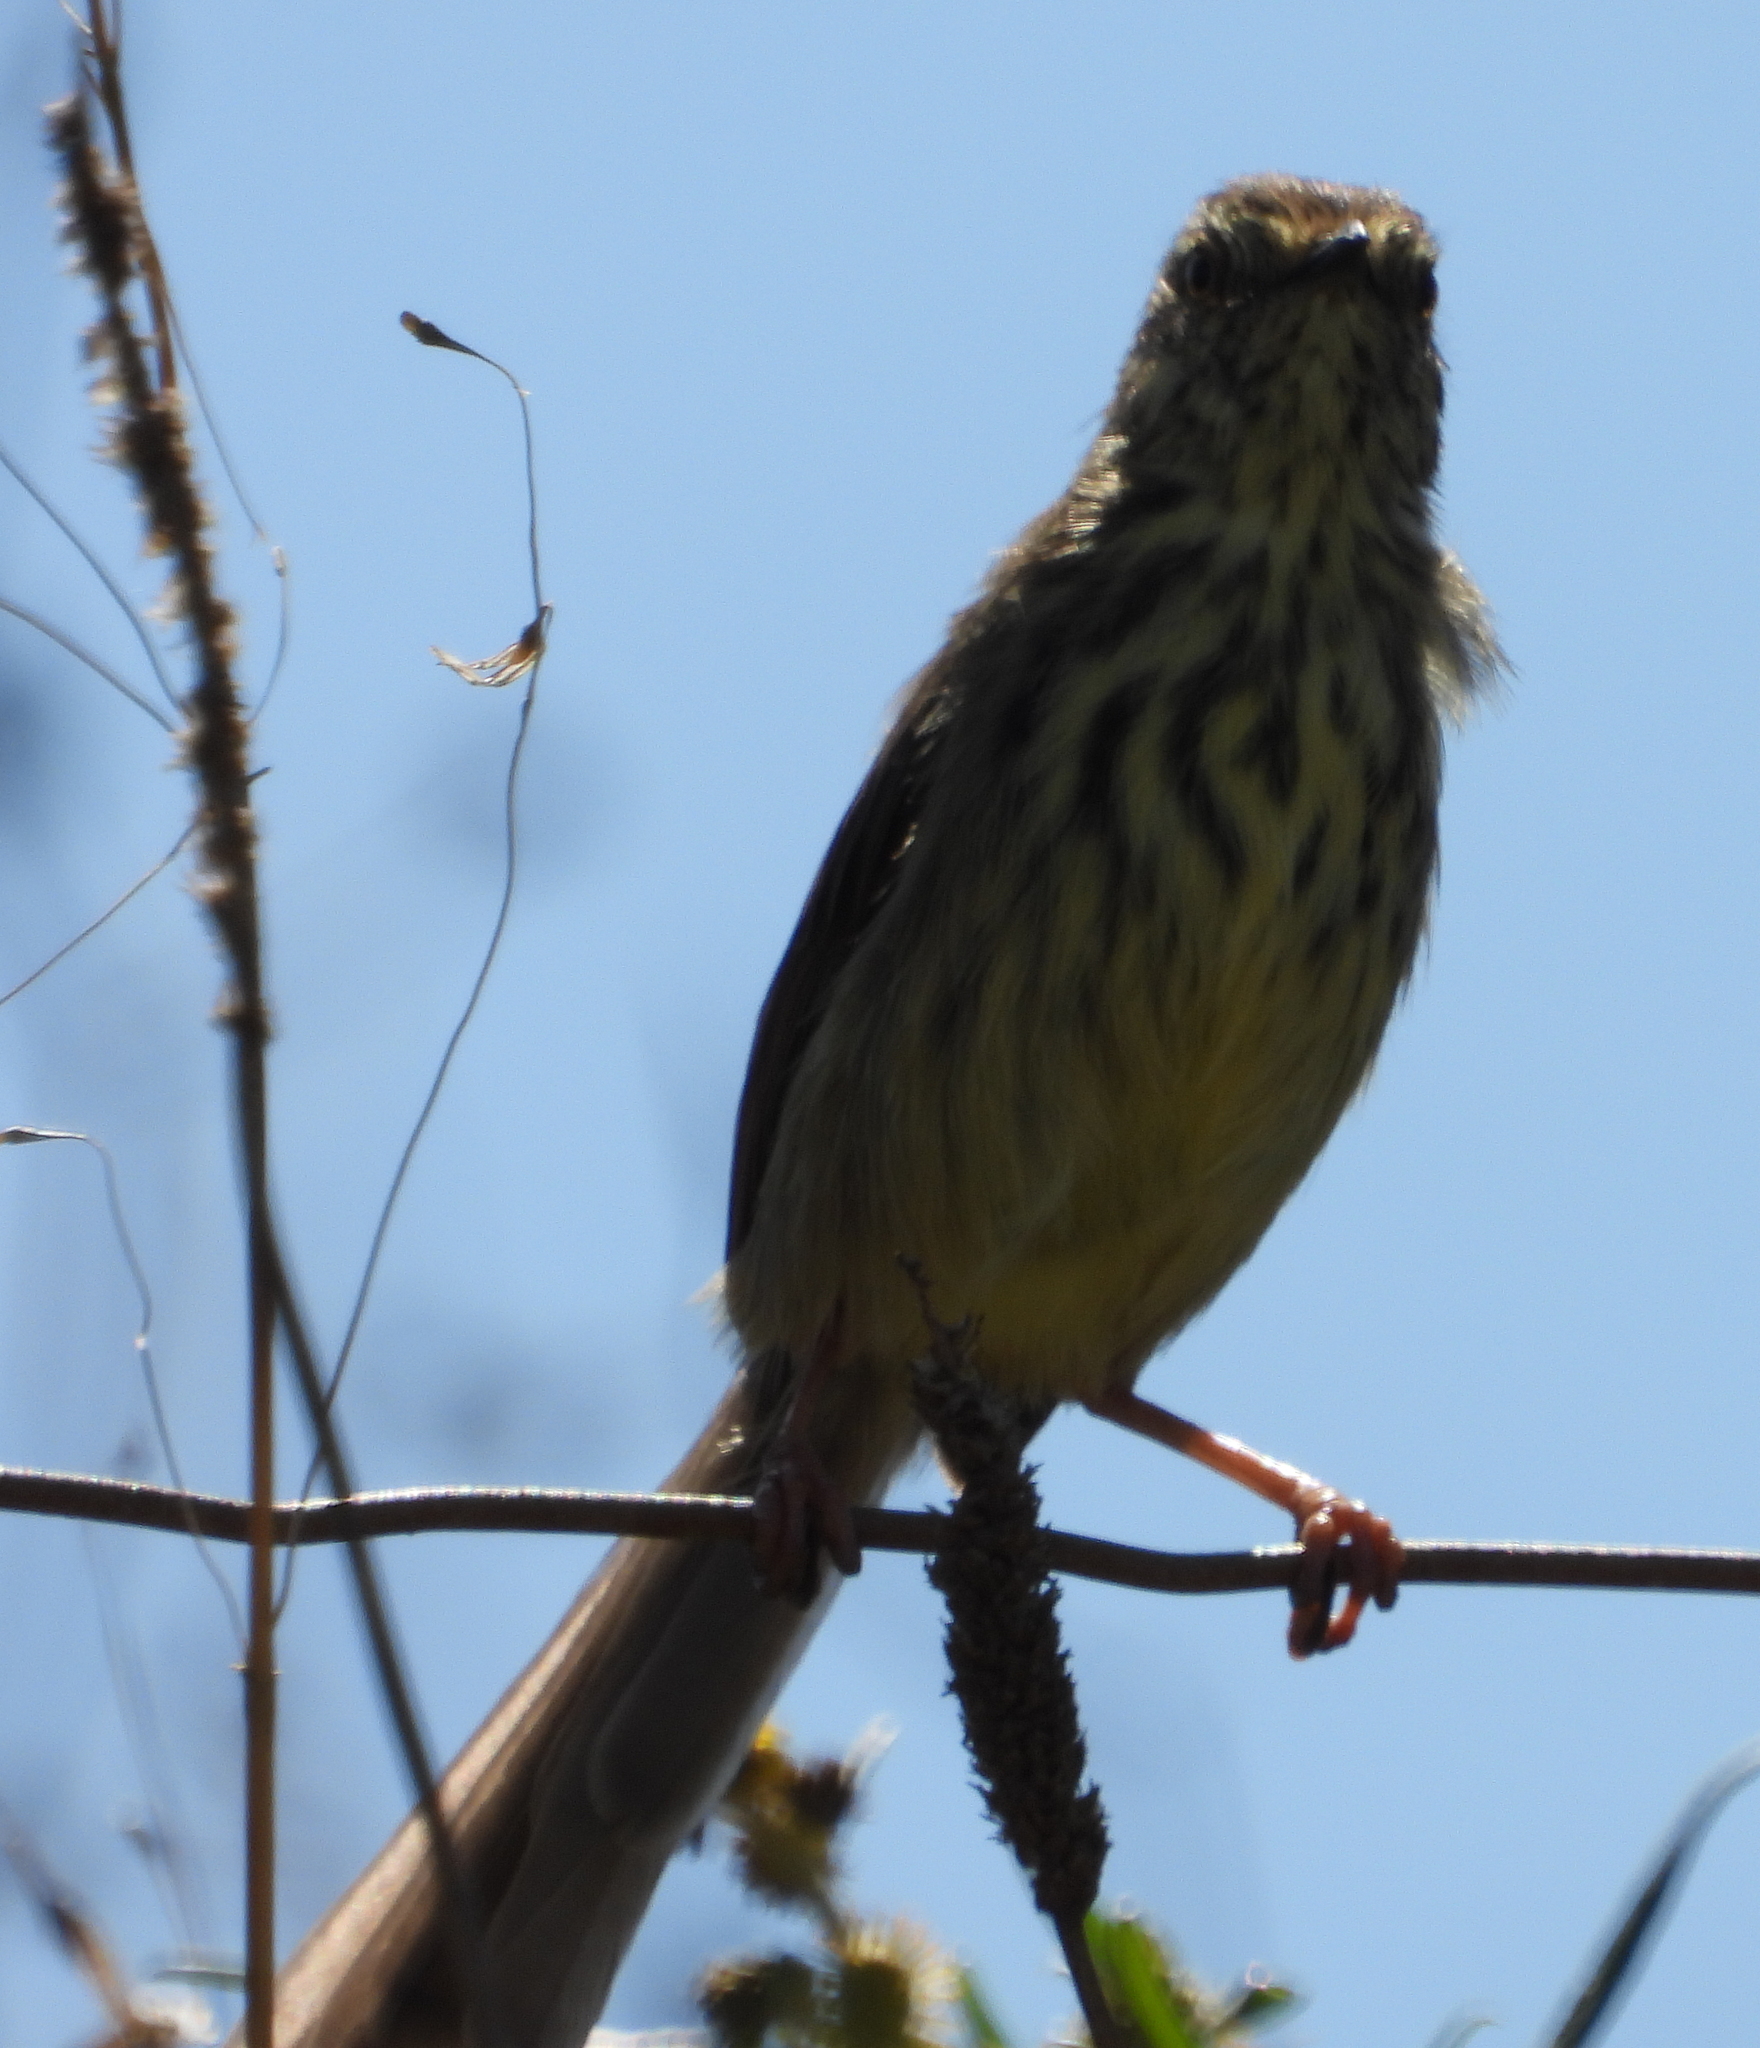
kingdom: Animalia
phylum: Chordata
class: Aves
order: Passeriformes
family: Cisticolidae
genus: Prinia
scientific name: Prinia maculosa
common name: Karoo prinia
